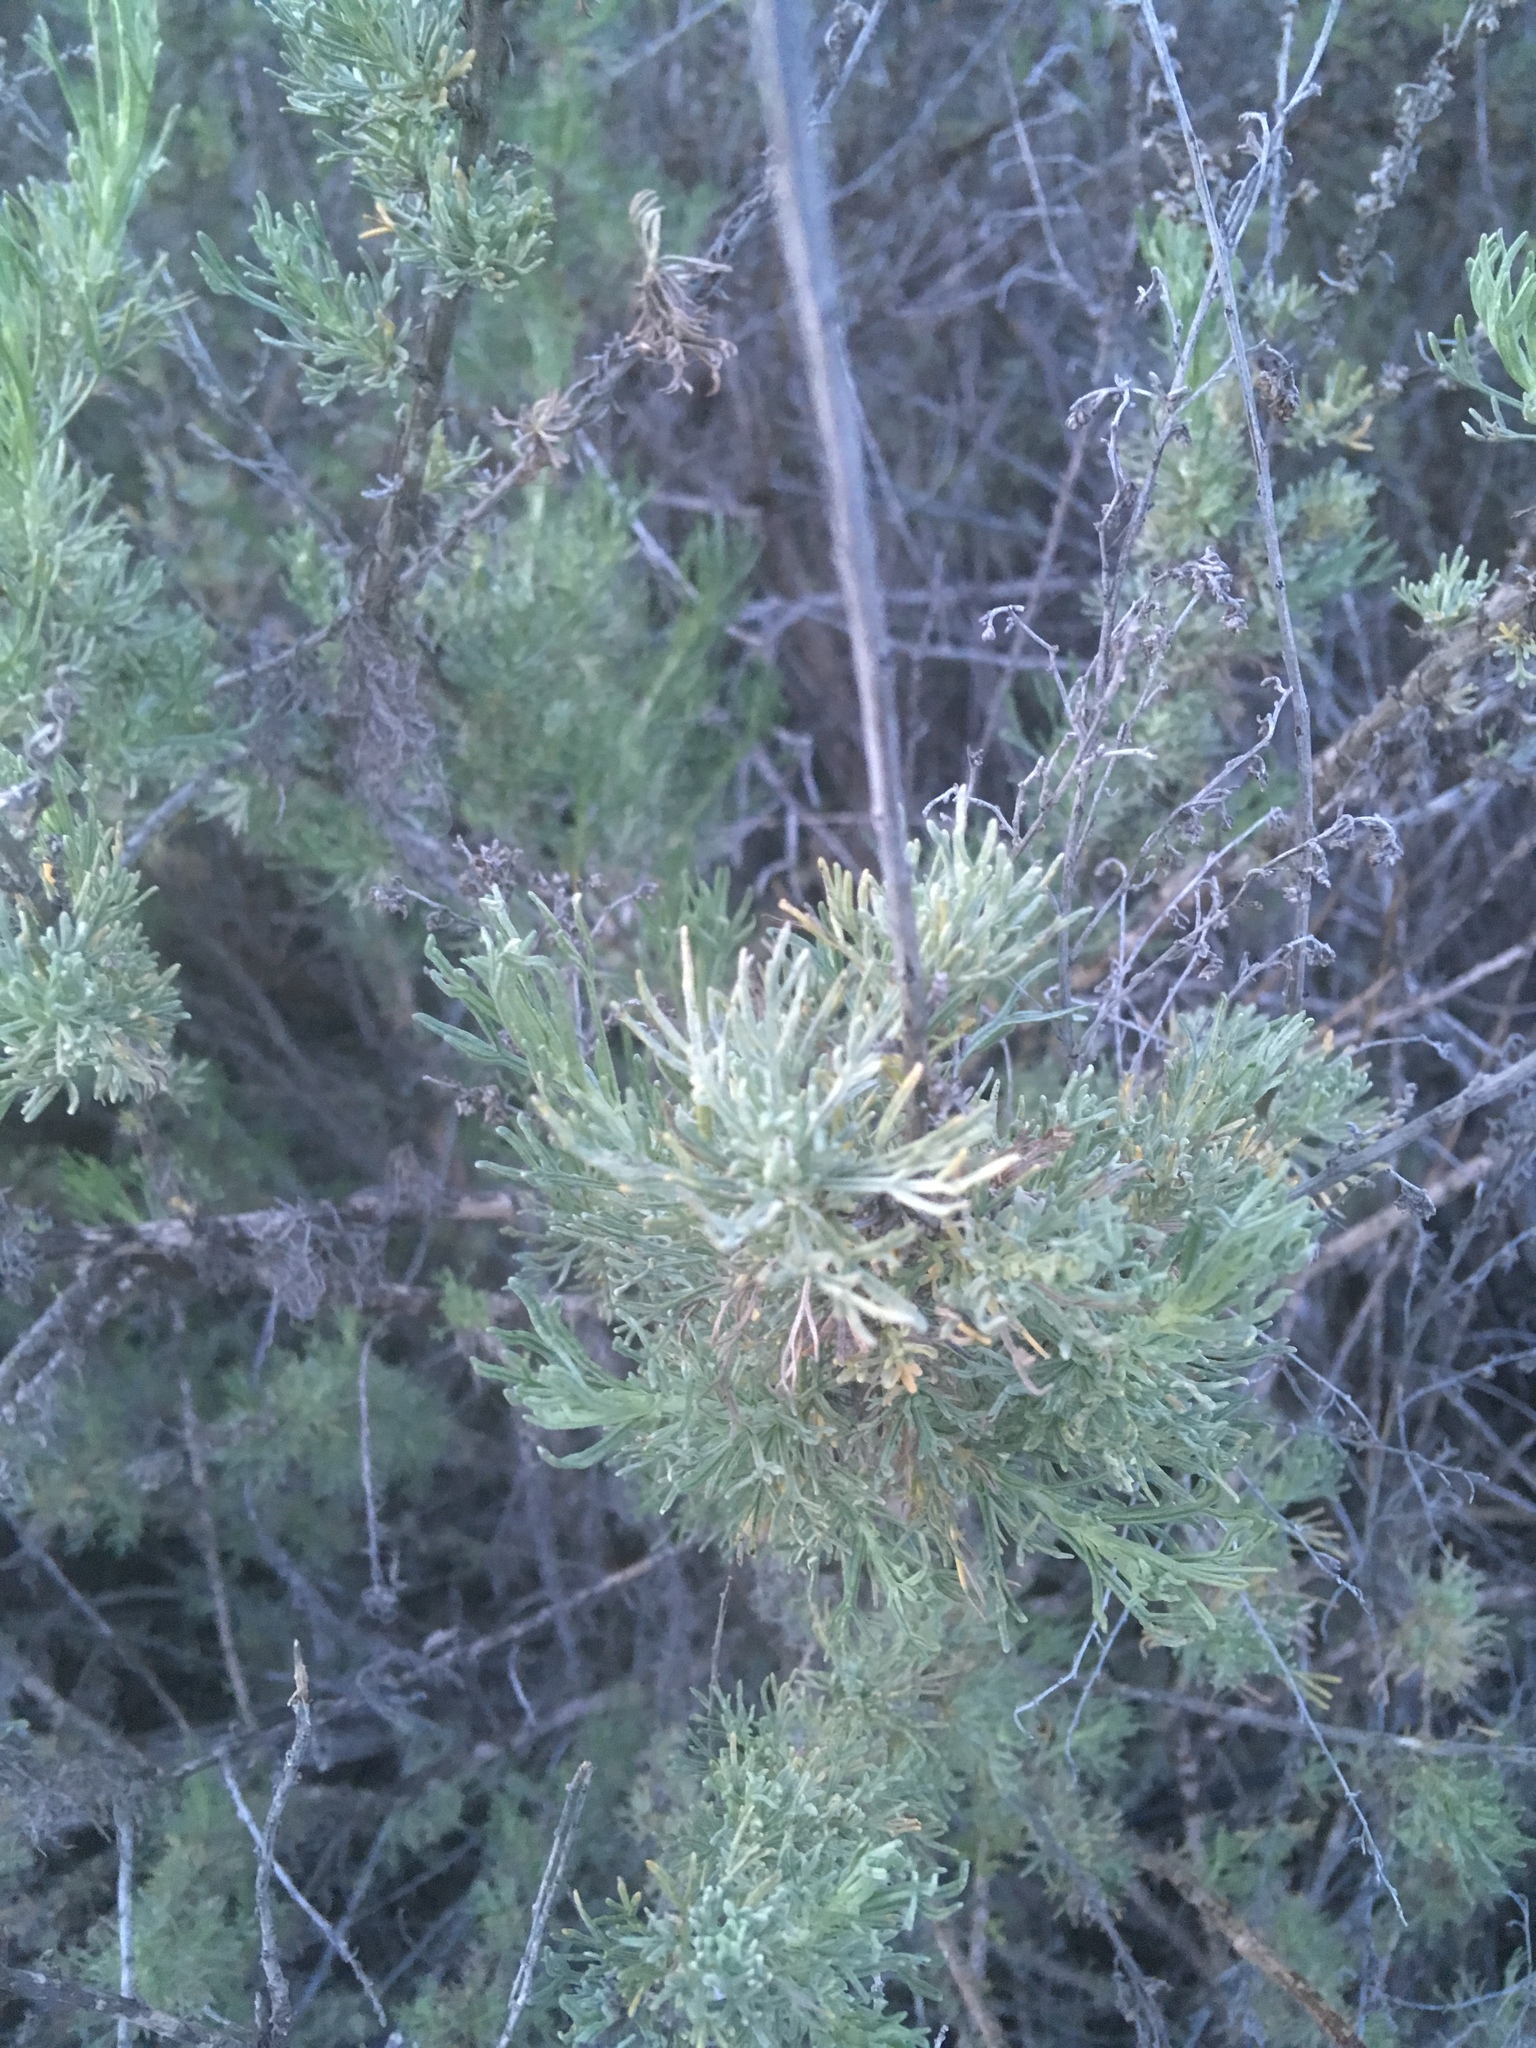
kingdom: Plantae
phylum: Tracheophyta
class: Magnoliopsida
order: Asterales
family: Asteraceae
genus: Artemisia
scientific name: Artemisia californica
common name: California sagebrush
